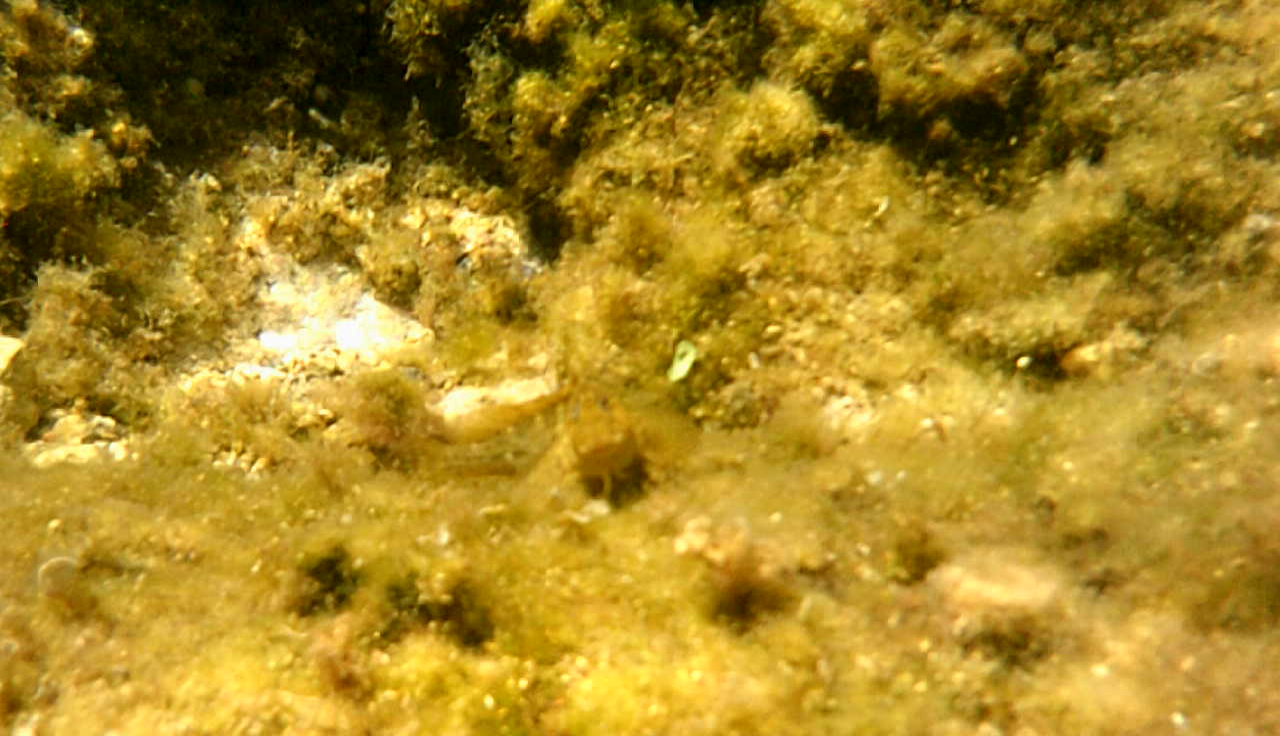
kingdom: Animalia
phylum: Chordata
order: Perciformes
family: Blenniidae
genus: Parablennius
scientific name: Parablennius sanguinolentus
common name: Black sea blenny
